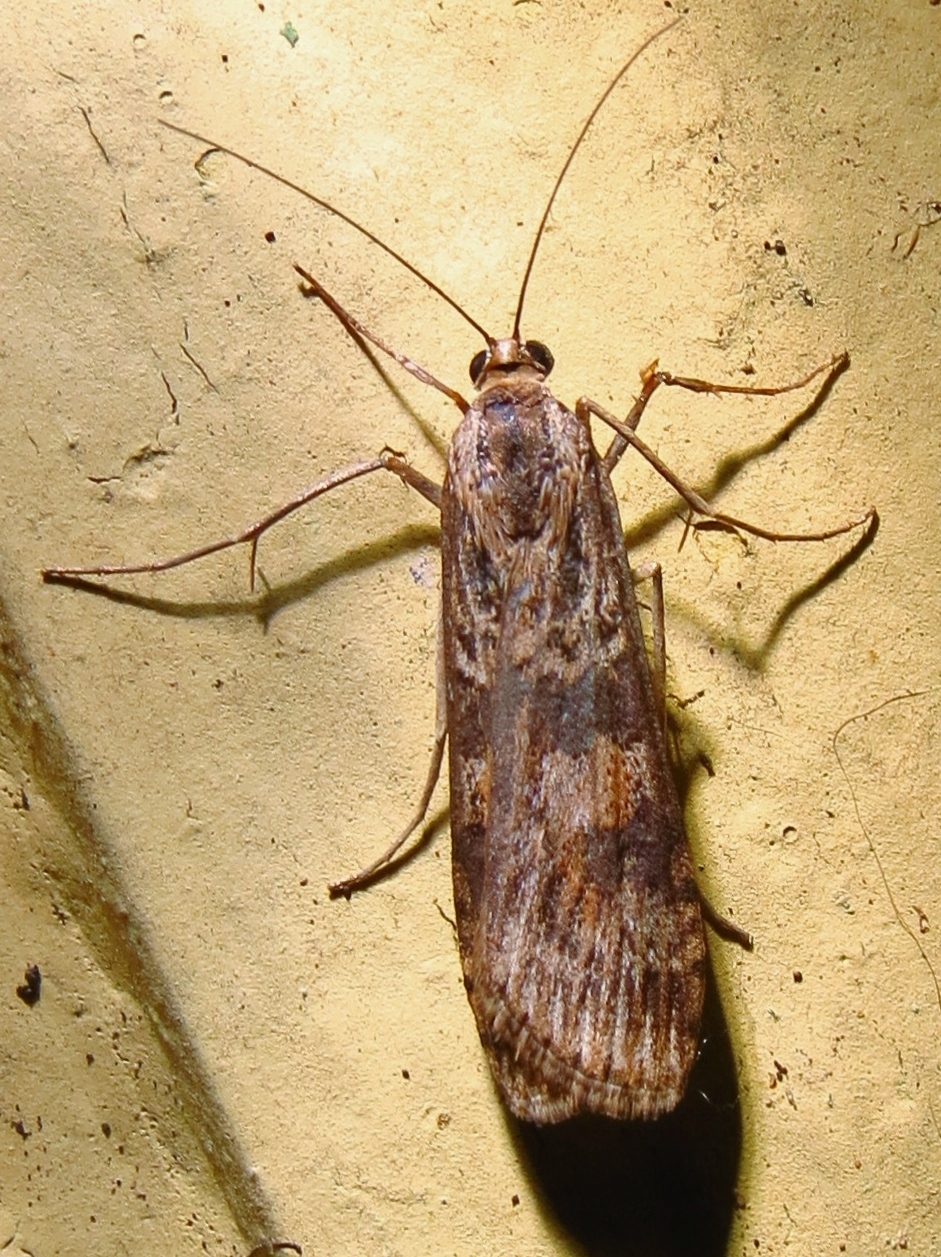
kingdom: Animalia
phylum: Arthropoda
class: Insecta
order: Lepidoptera
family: Crambidae
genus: Nomophila
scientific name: Nomophila nearctica
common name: American rush veneer
